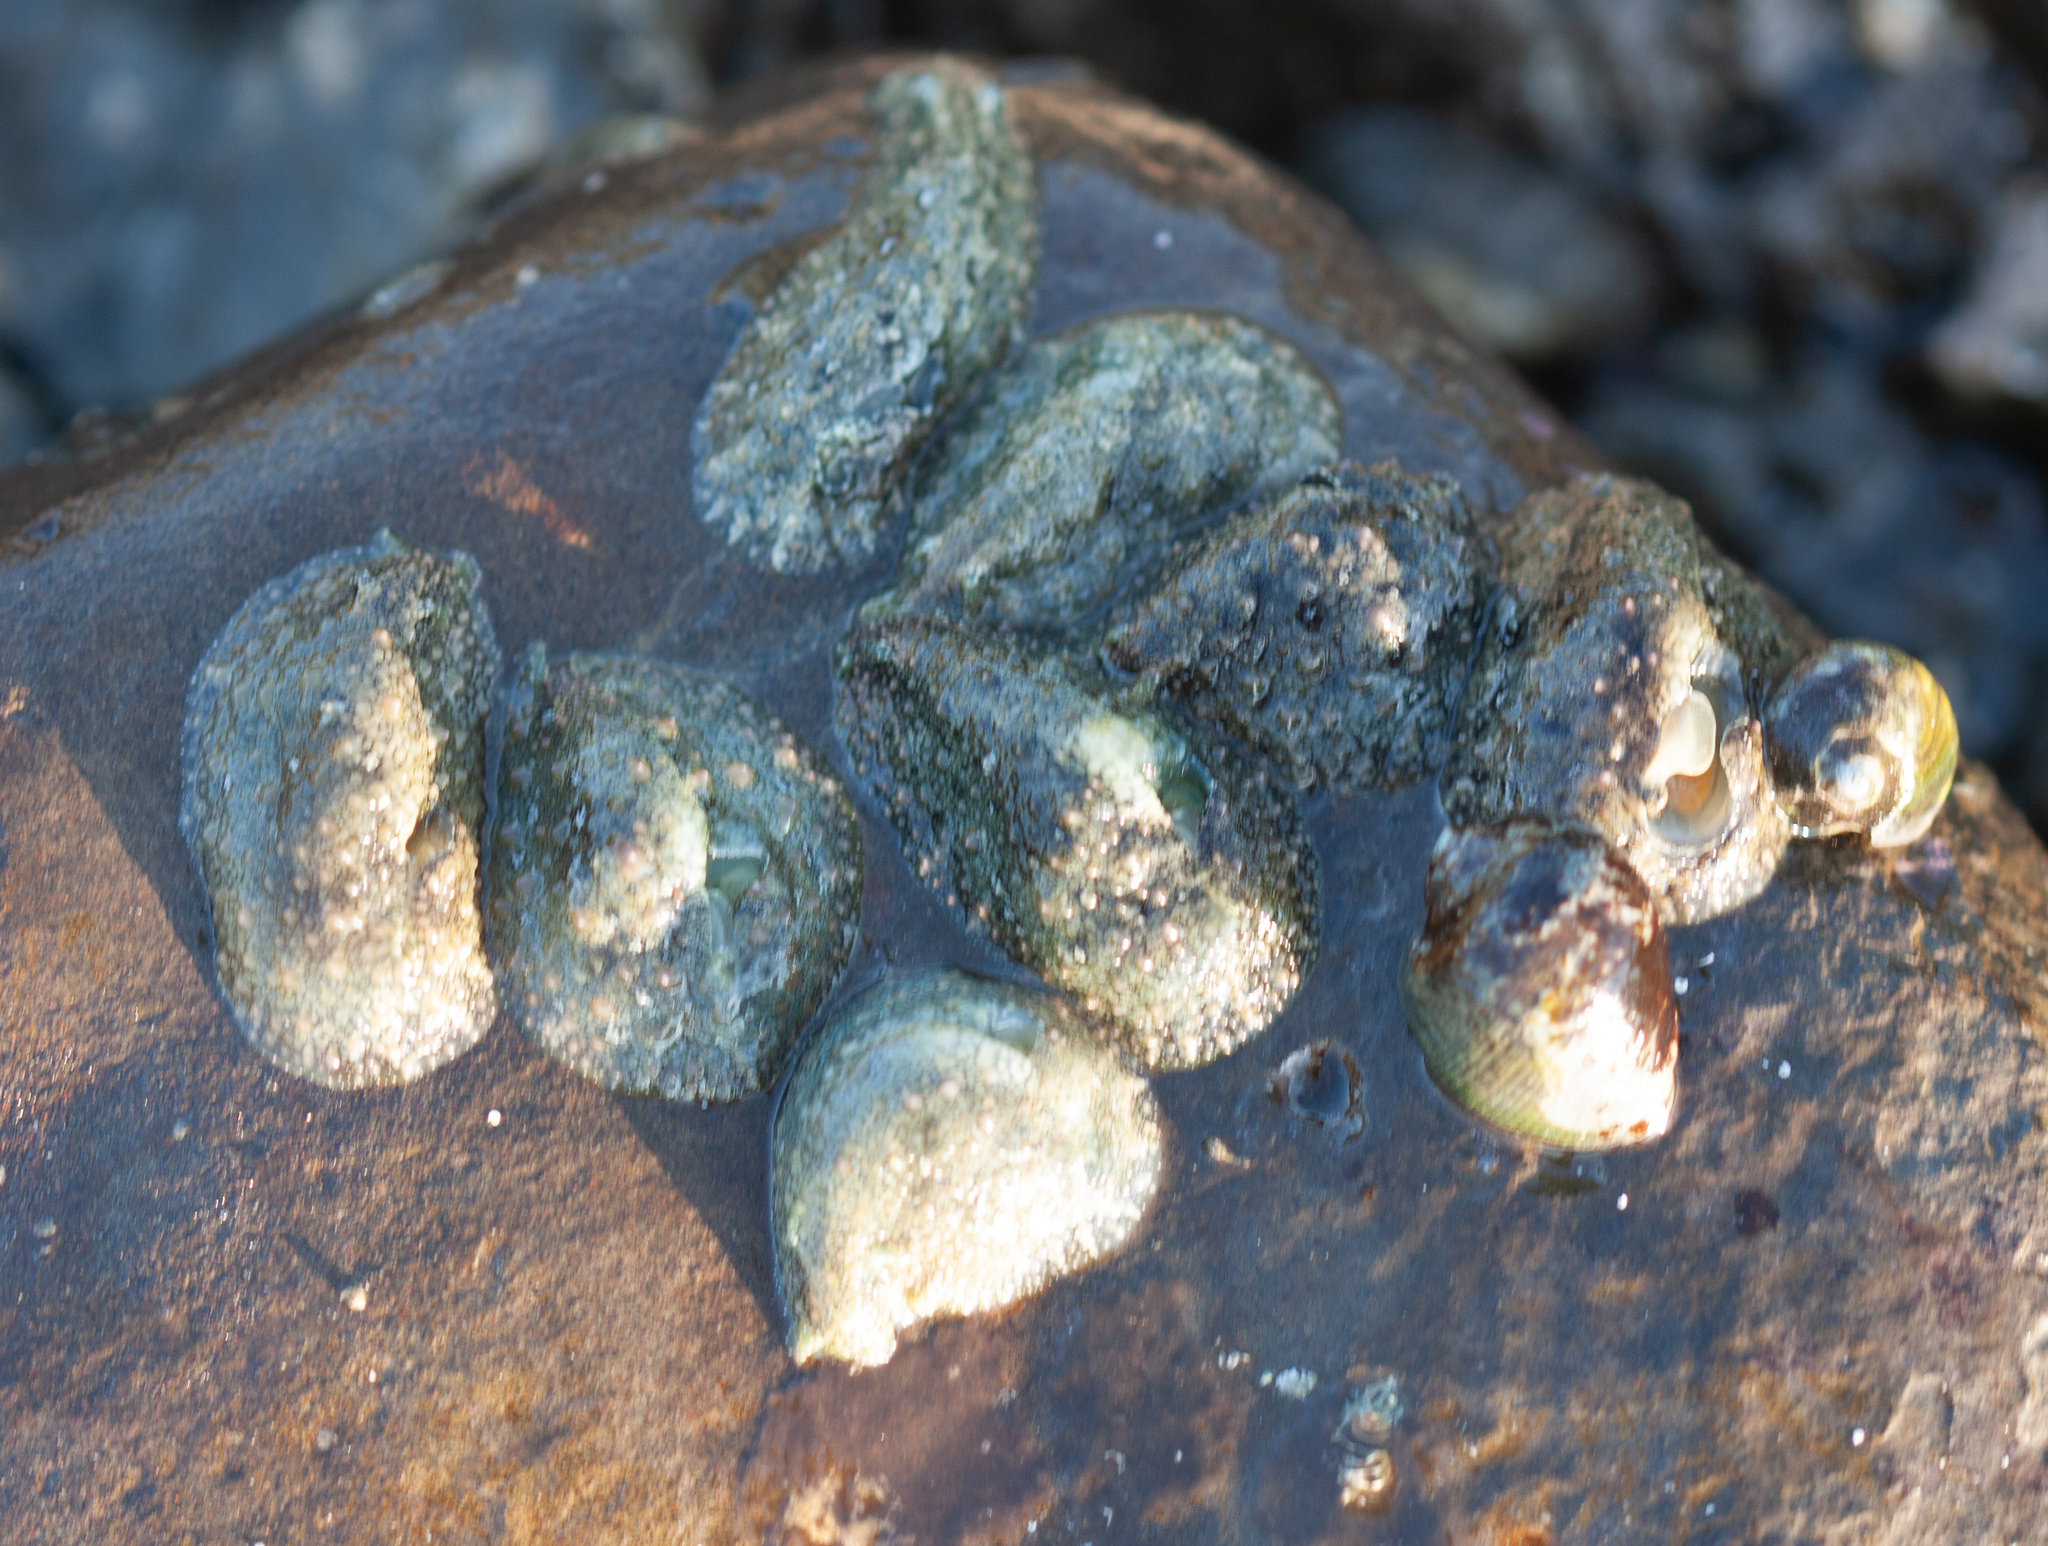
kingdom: Animalia
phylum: Mollusca
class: Gastropoda
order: Aplysiida
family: Aplysiidae
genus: Dolabrifera
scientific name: Dolabrifera nicaraguana
